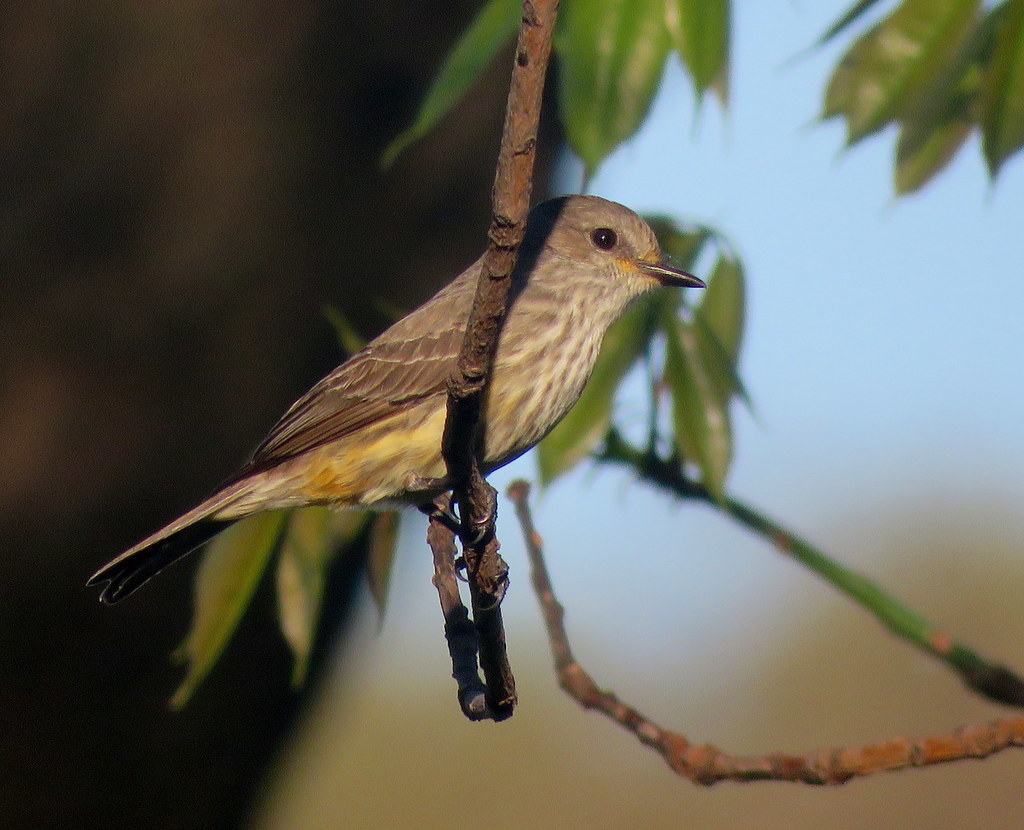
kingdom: Animalia
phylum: Chordata
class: Aves
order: Passeriformes
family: Tyrannidae
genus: Pyrocephalus
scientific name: Pyrocephalus rubinus
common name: Vermilion flycatcher
